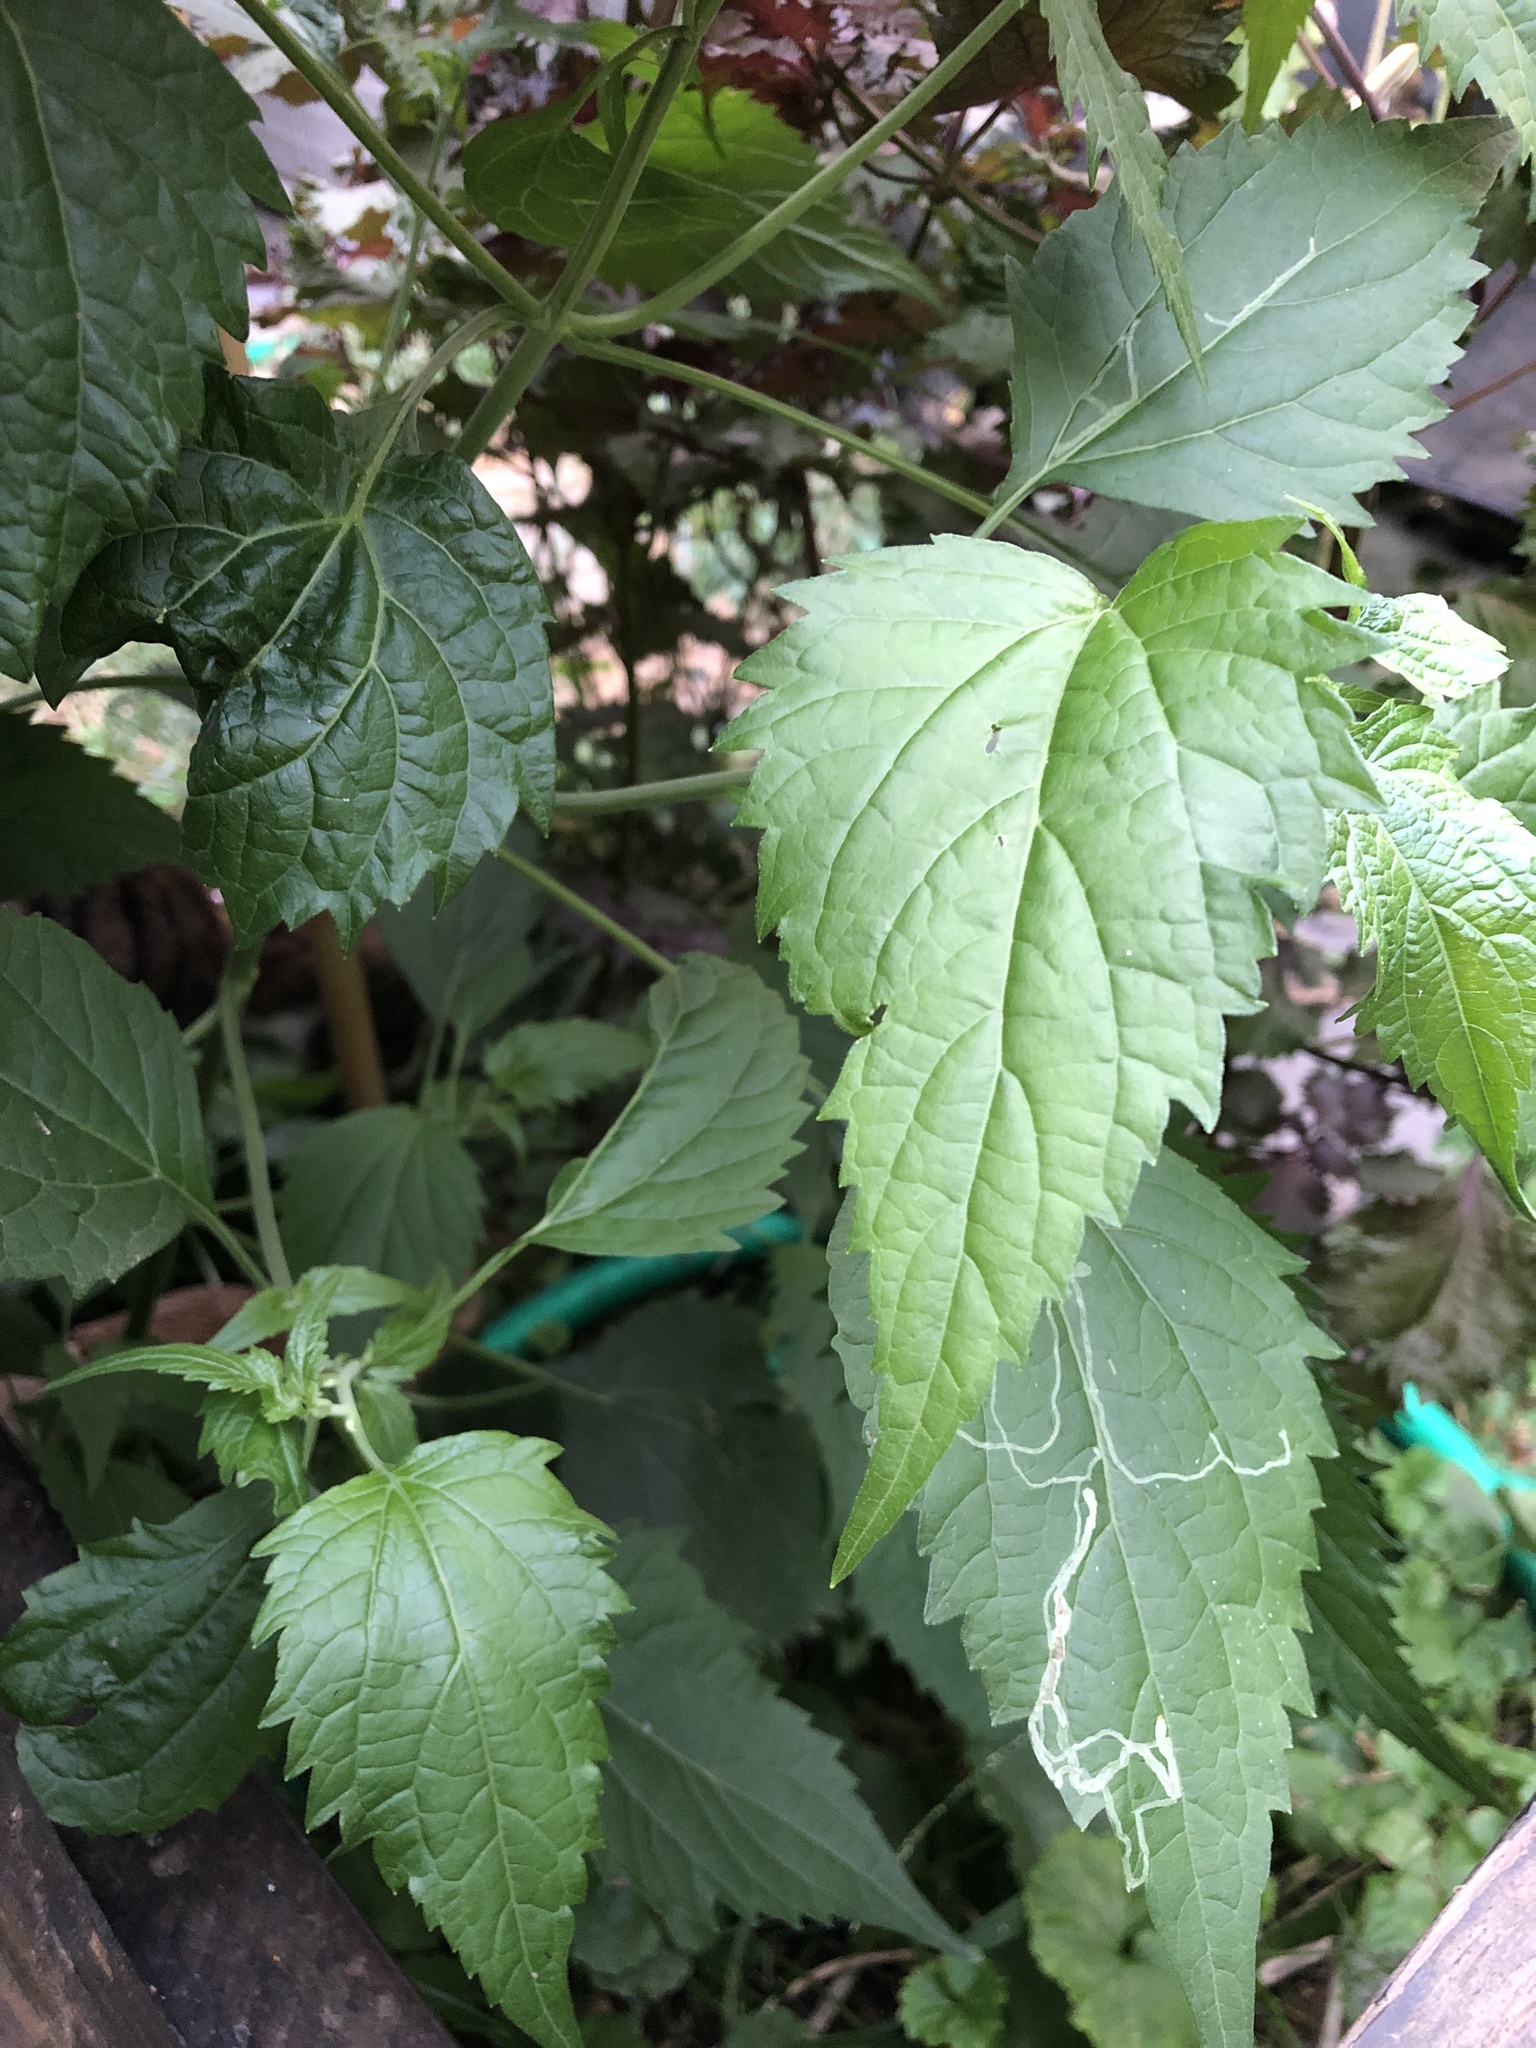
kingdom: Plantae
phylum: Tracheophyta
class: Magnoliopsida
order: Asterales
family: Asteraceae
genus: Ageratina
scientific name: Ageratina altissima
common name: White snakeroot
